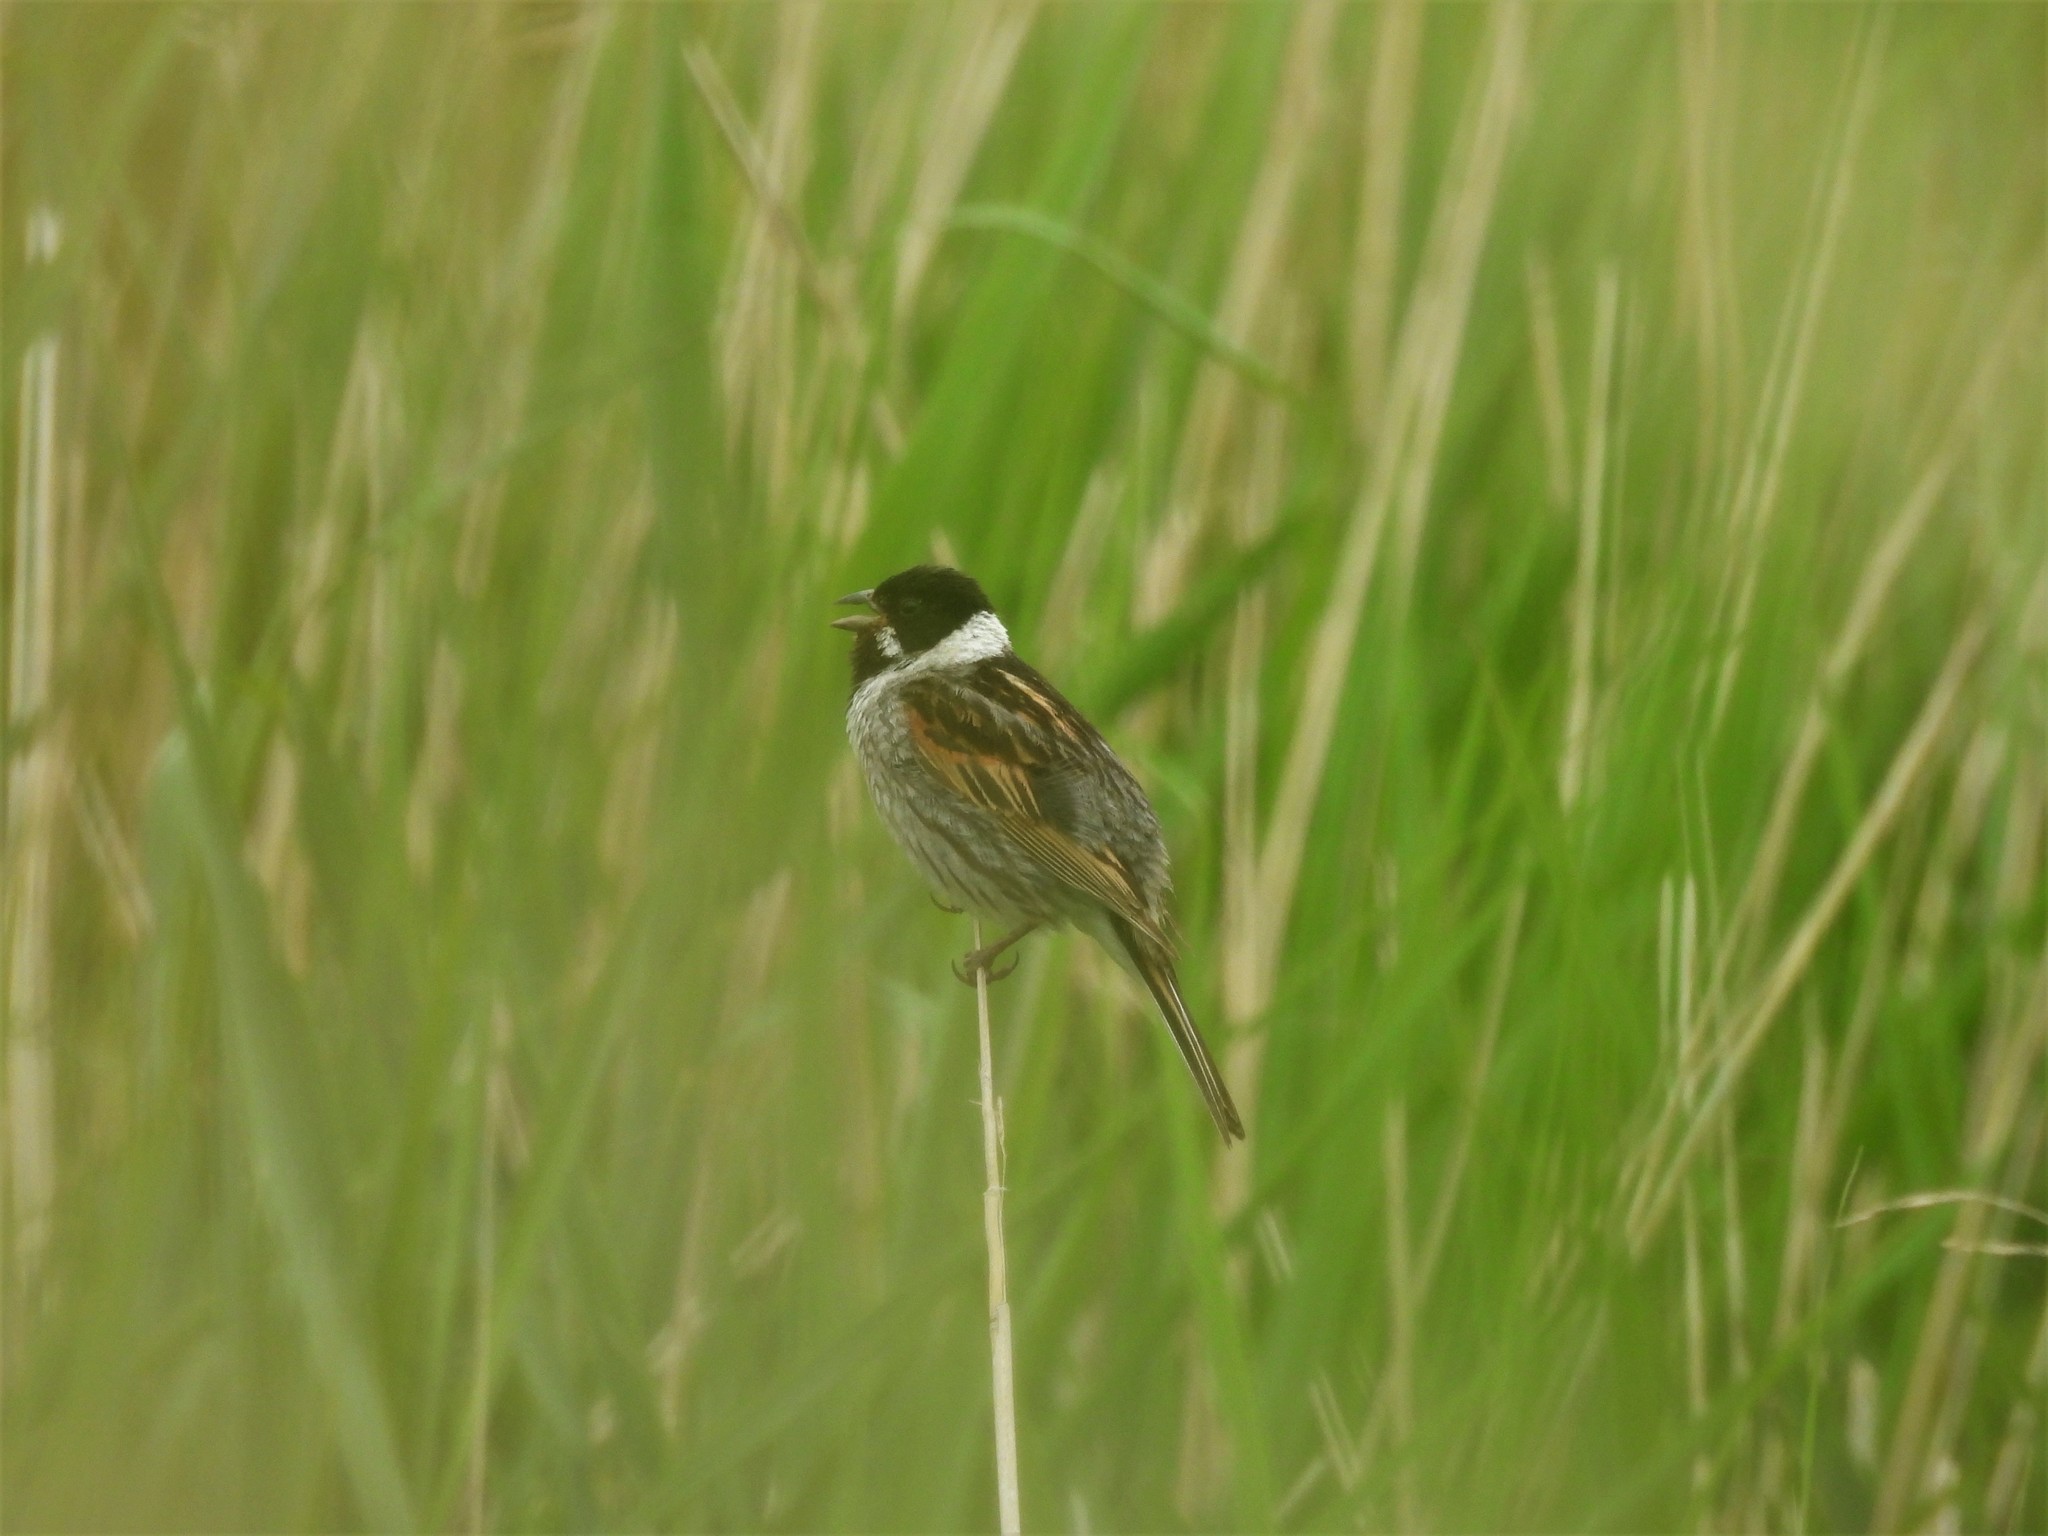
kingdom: Animalia
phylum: Chordata
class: Aves
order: Passeriformes
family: Emberizidae
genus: Emberiza
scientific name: Emberiza schoeniclus
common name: Reed bunting
